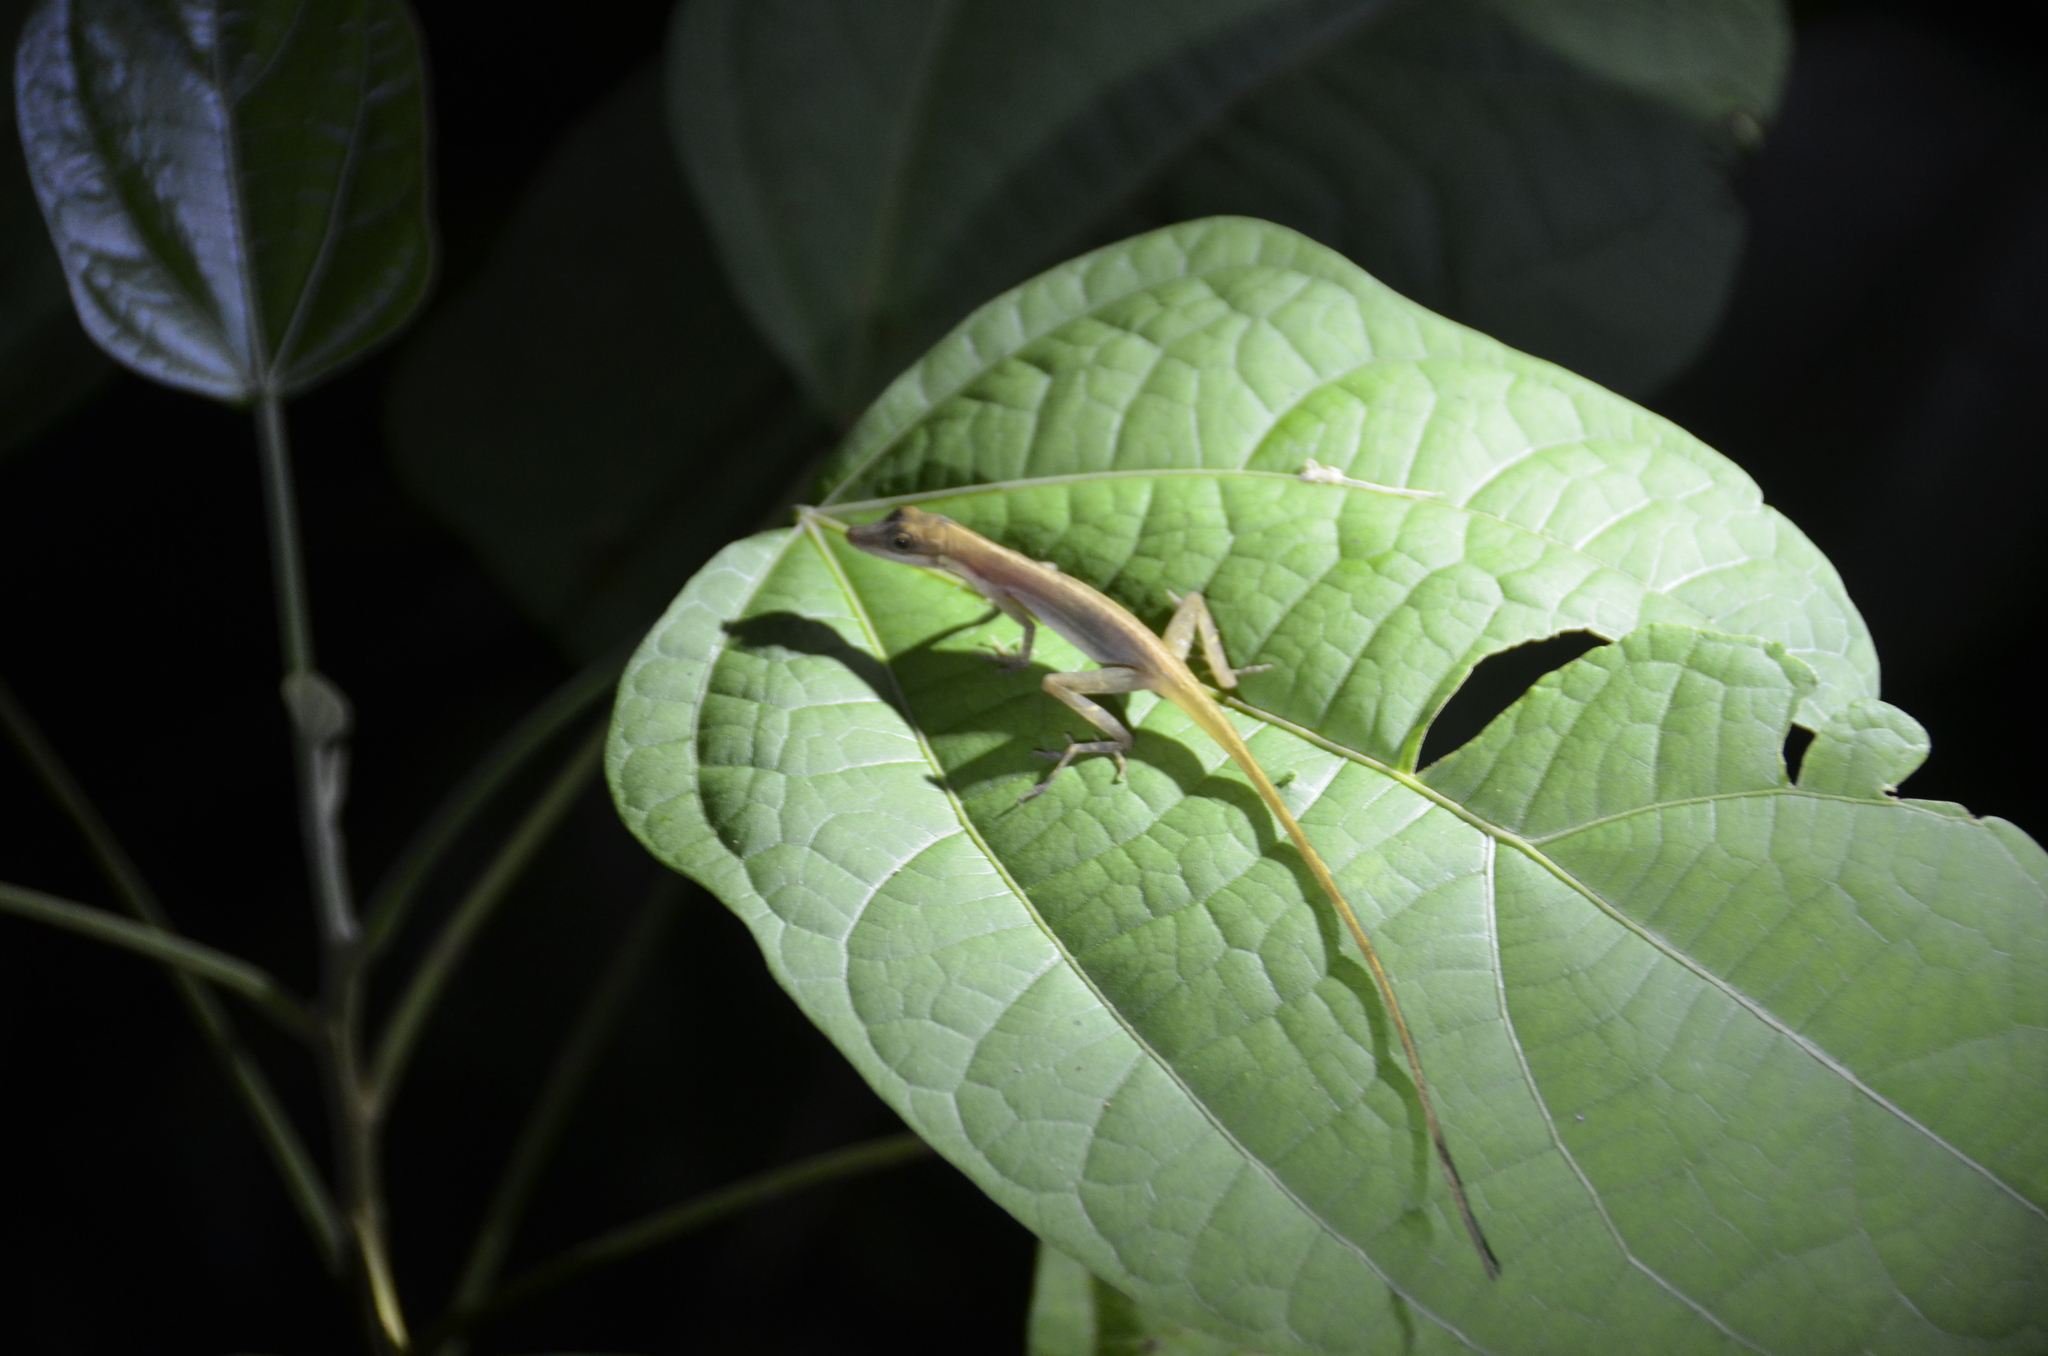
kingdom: Animalia
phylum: Chordata
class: Squamata
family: Dactyloidae
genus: Anolis
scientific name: Anolis limifrons
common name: Border anole
